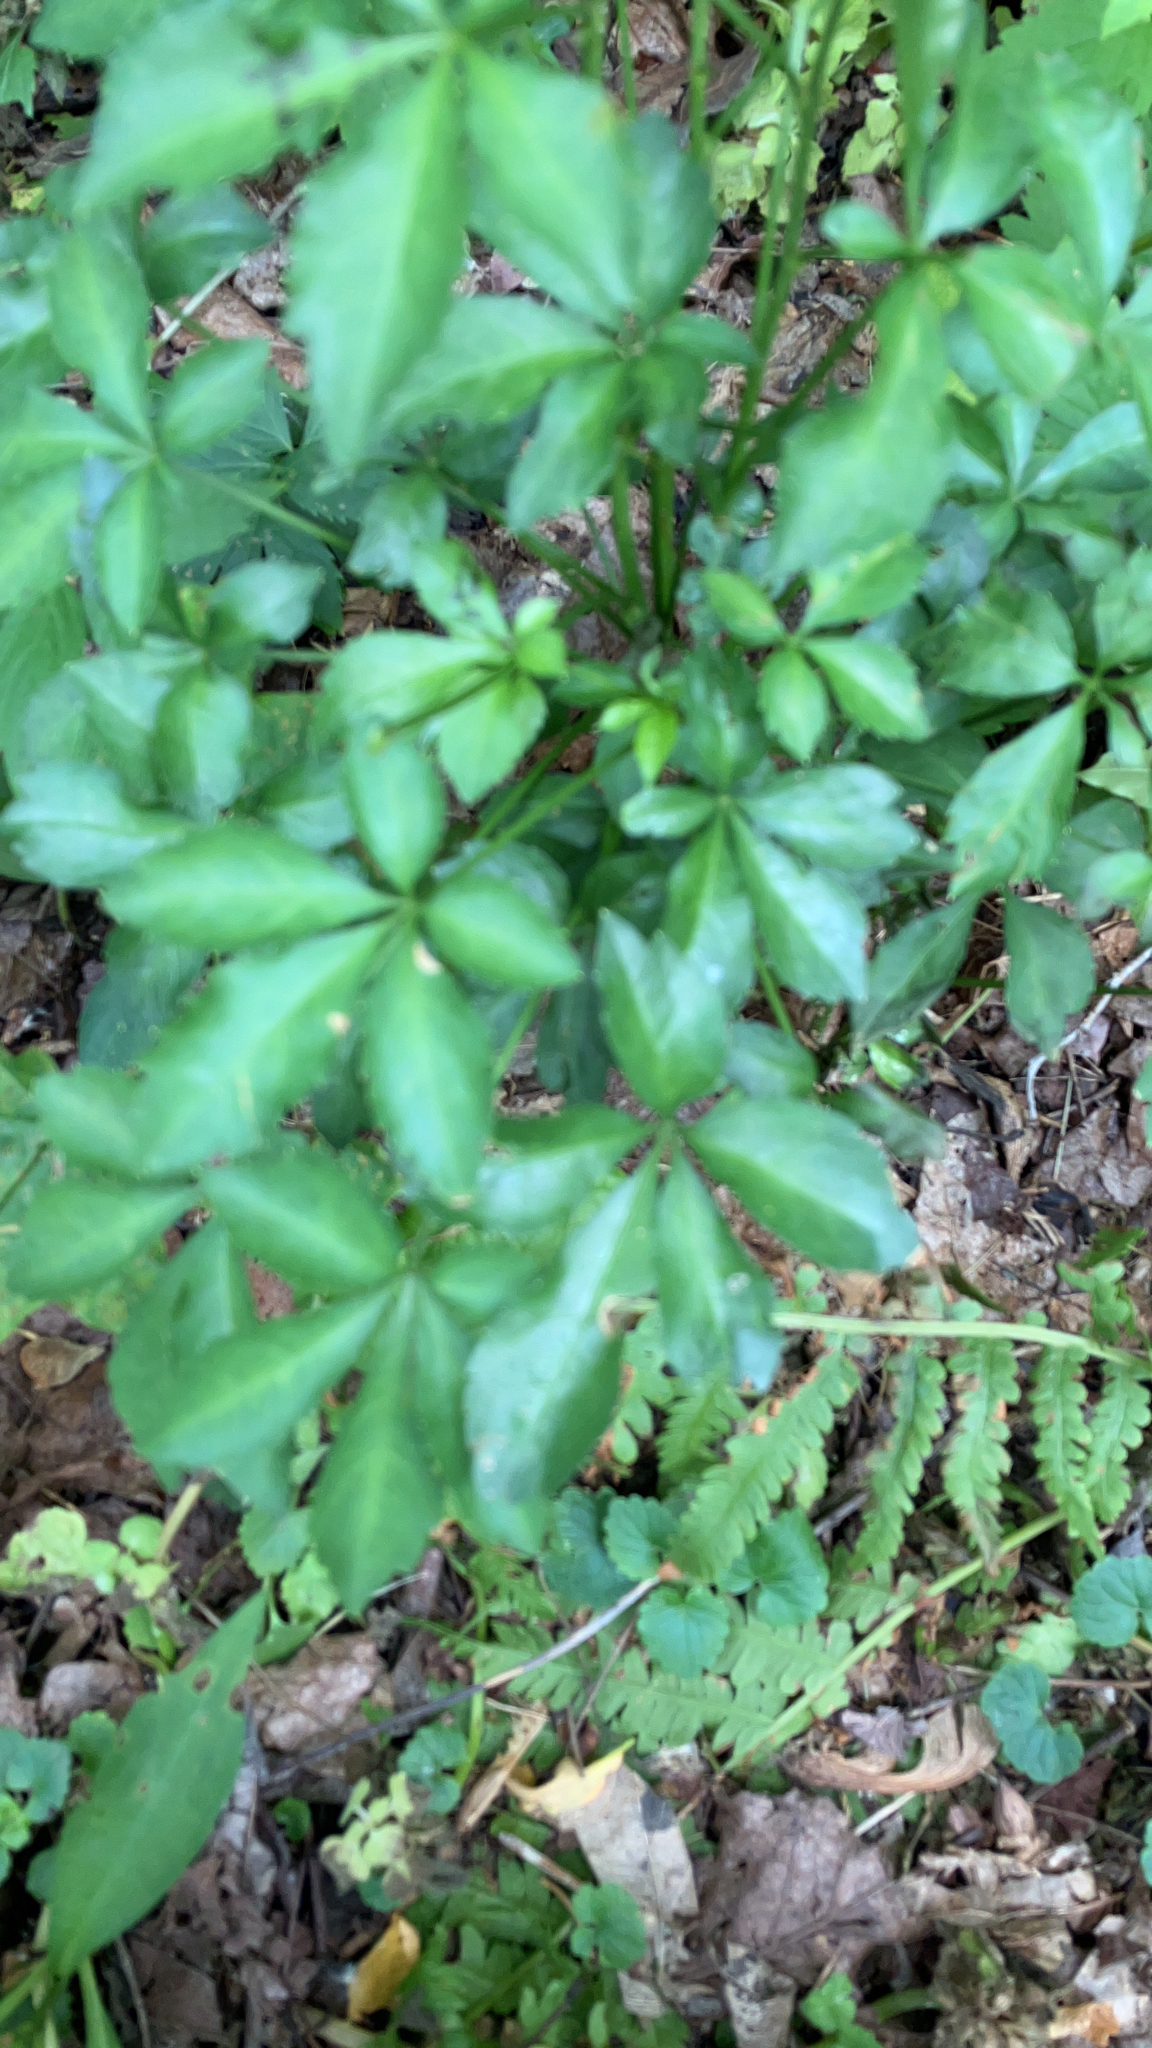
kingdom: Plantae
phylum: Tracheophyta
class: Magnoliopsida
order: Apiales
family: Araliaceae
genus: Eleutherococcus
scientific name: Eleutherococcus sieboldianus
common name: Ginseng
